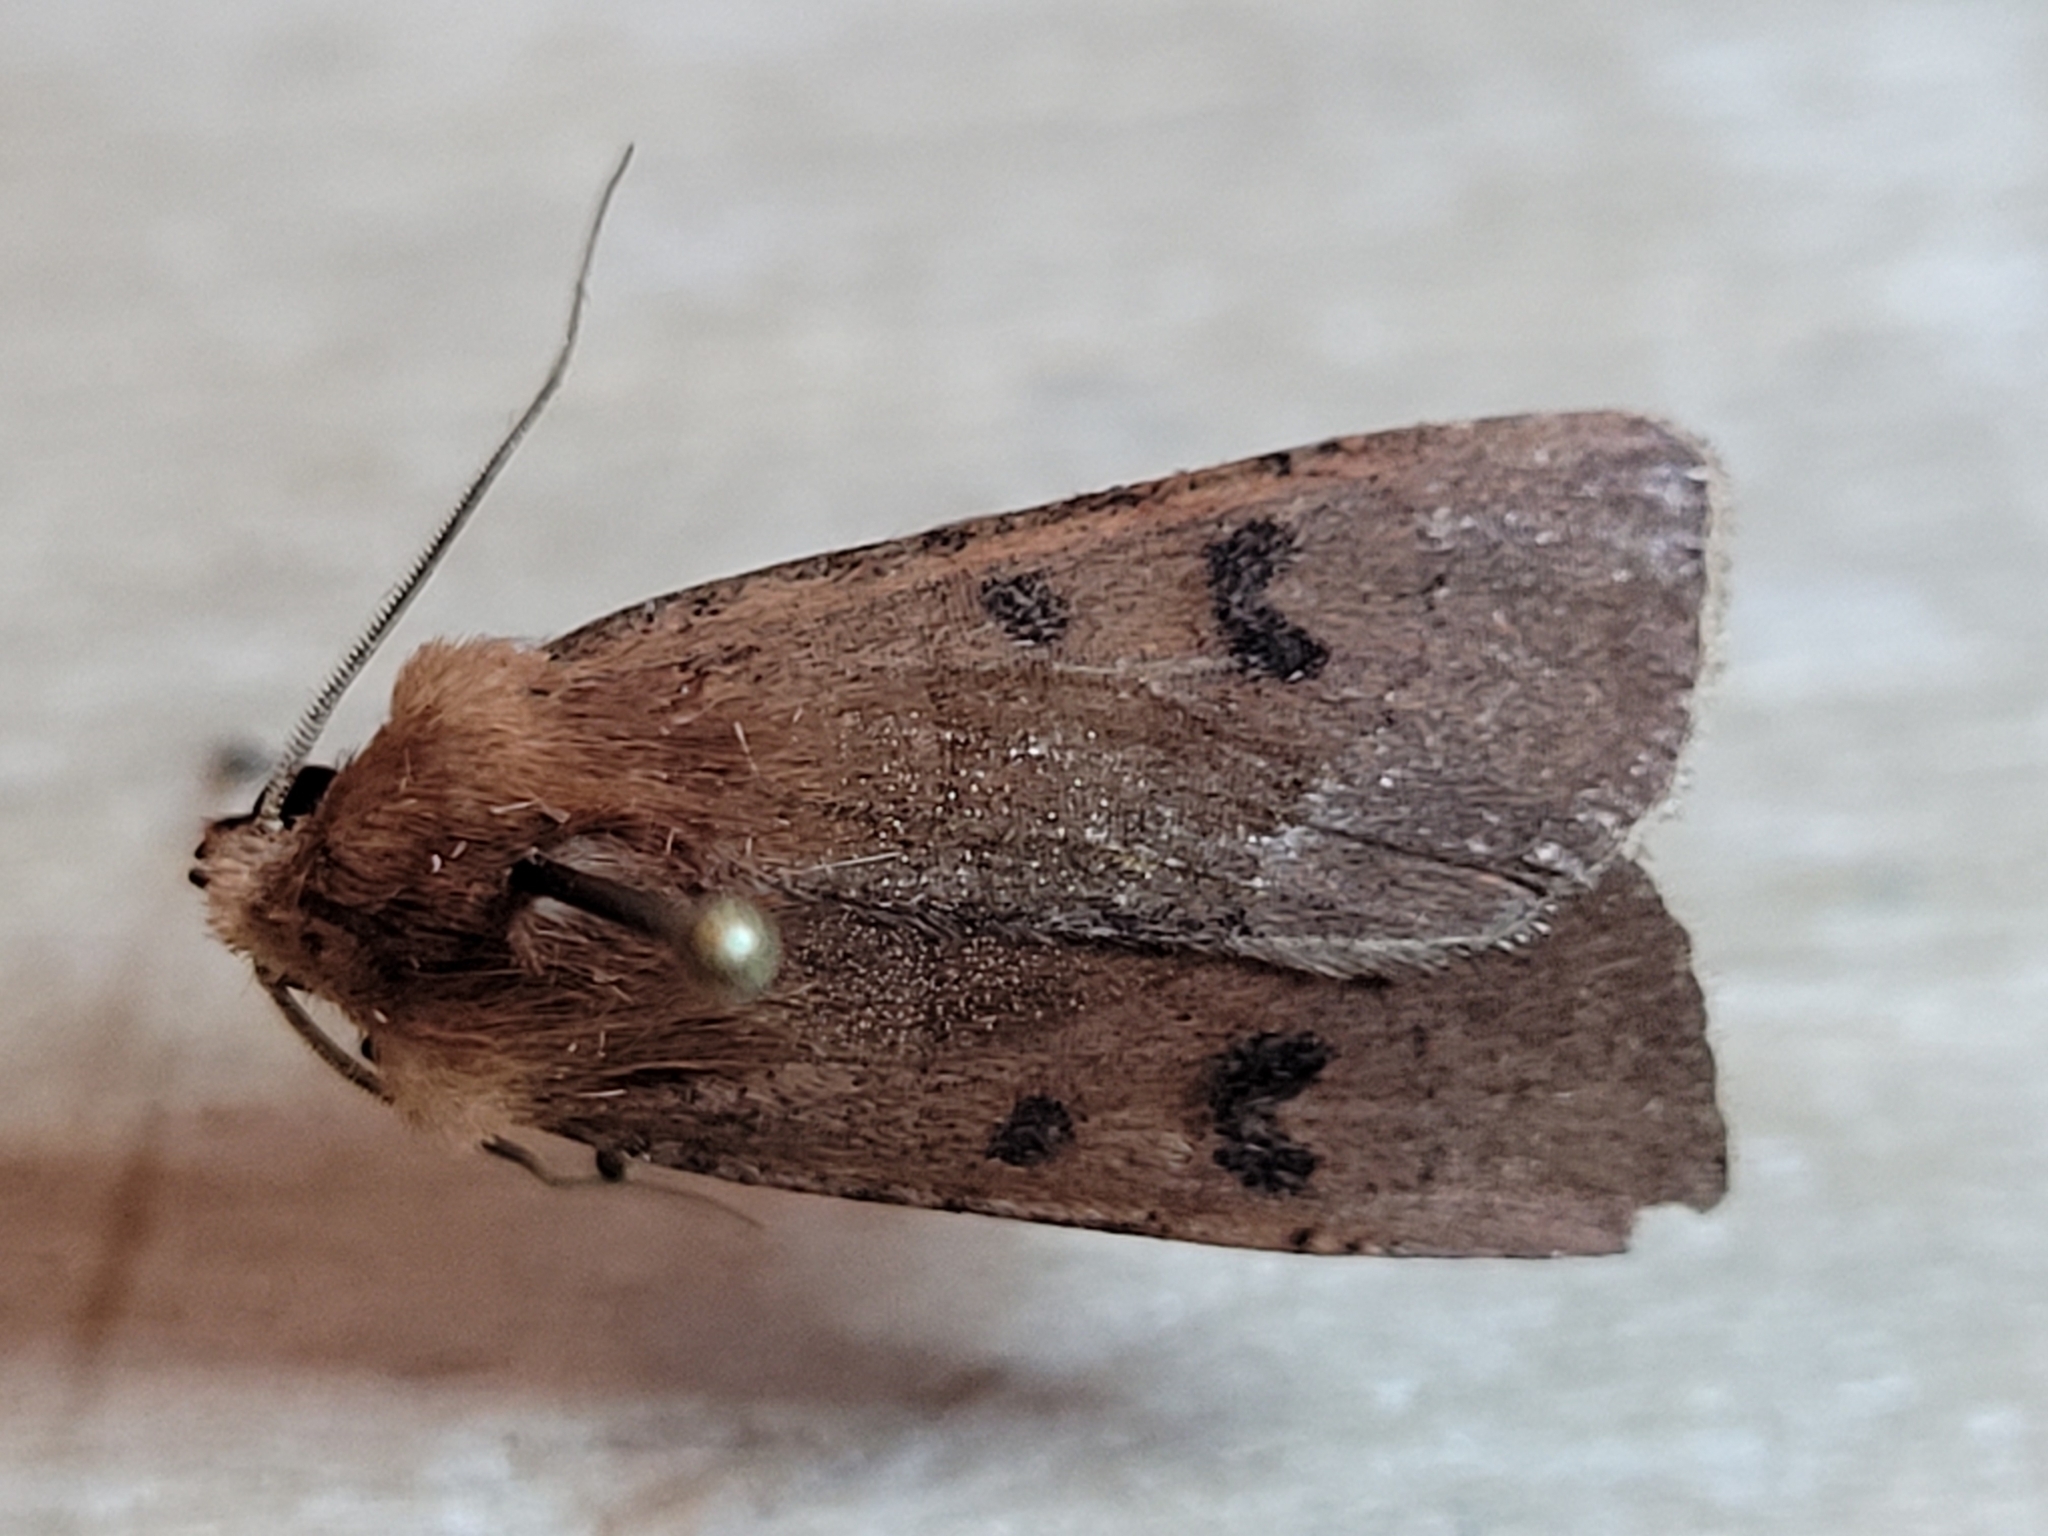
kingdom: Animalia
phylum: Arthropoda
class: Insecta
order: Lepidoptera
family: Noctuidae
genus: Euxoa
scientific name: Euxoa mimallonis
